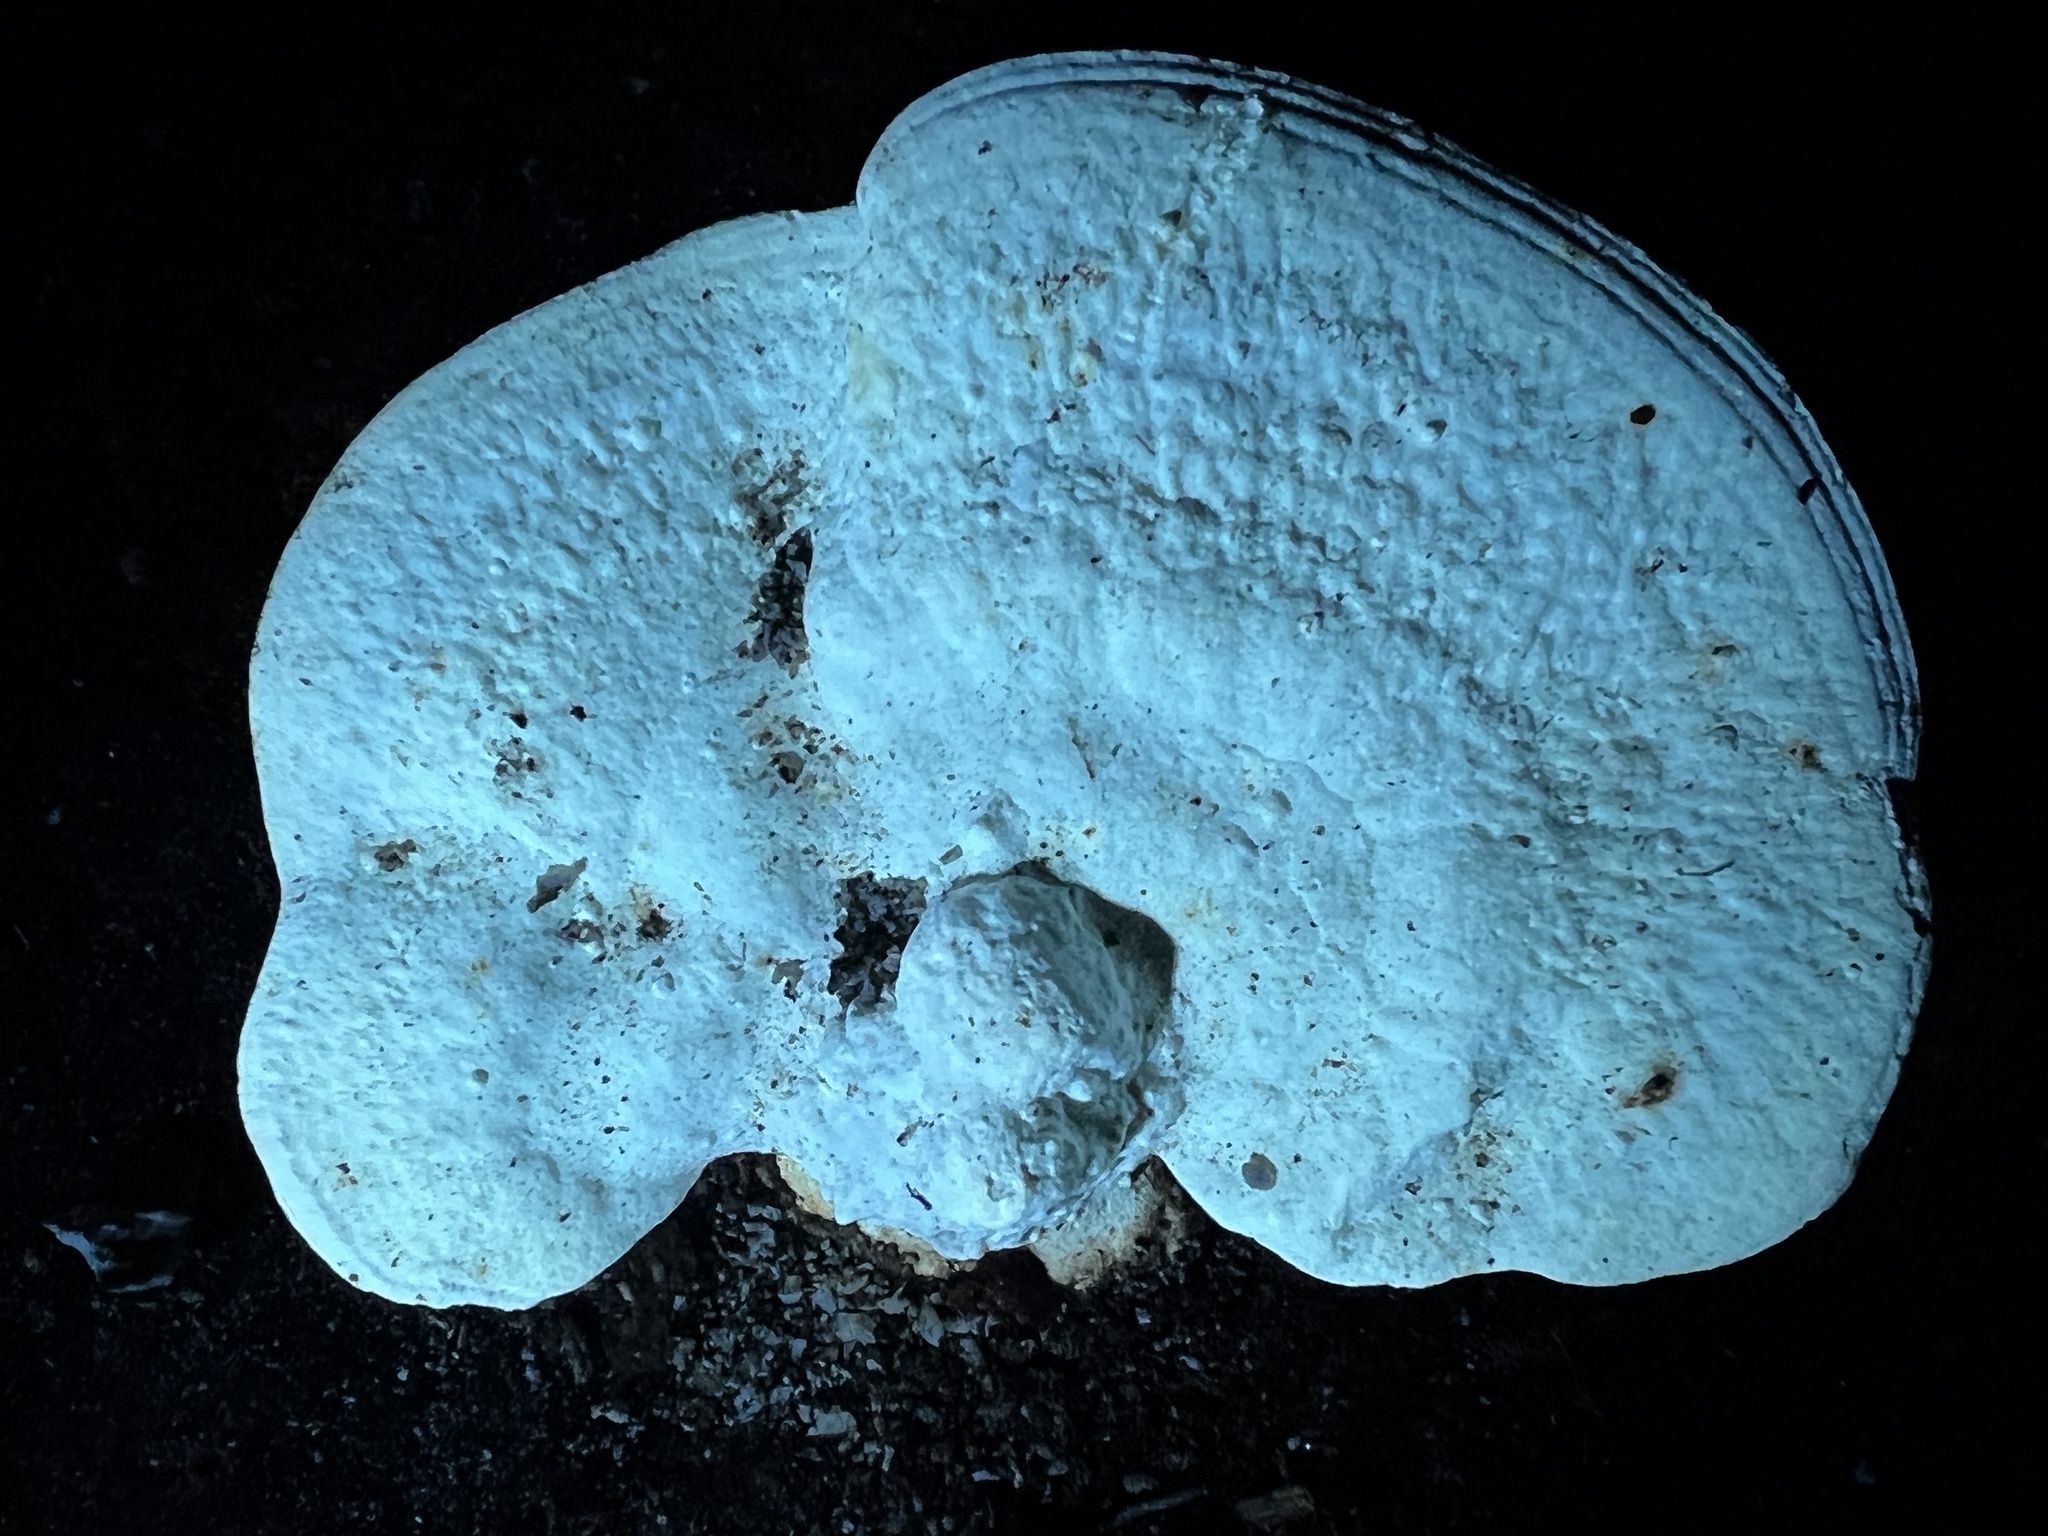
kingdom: Fungi
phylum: Basidiomycota
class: Agaricomycetes
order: Polyporales
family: Polyporaceae
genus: Trametes
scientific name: Trametes
